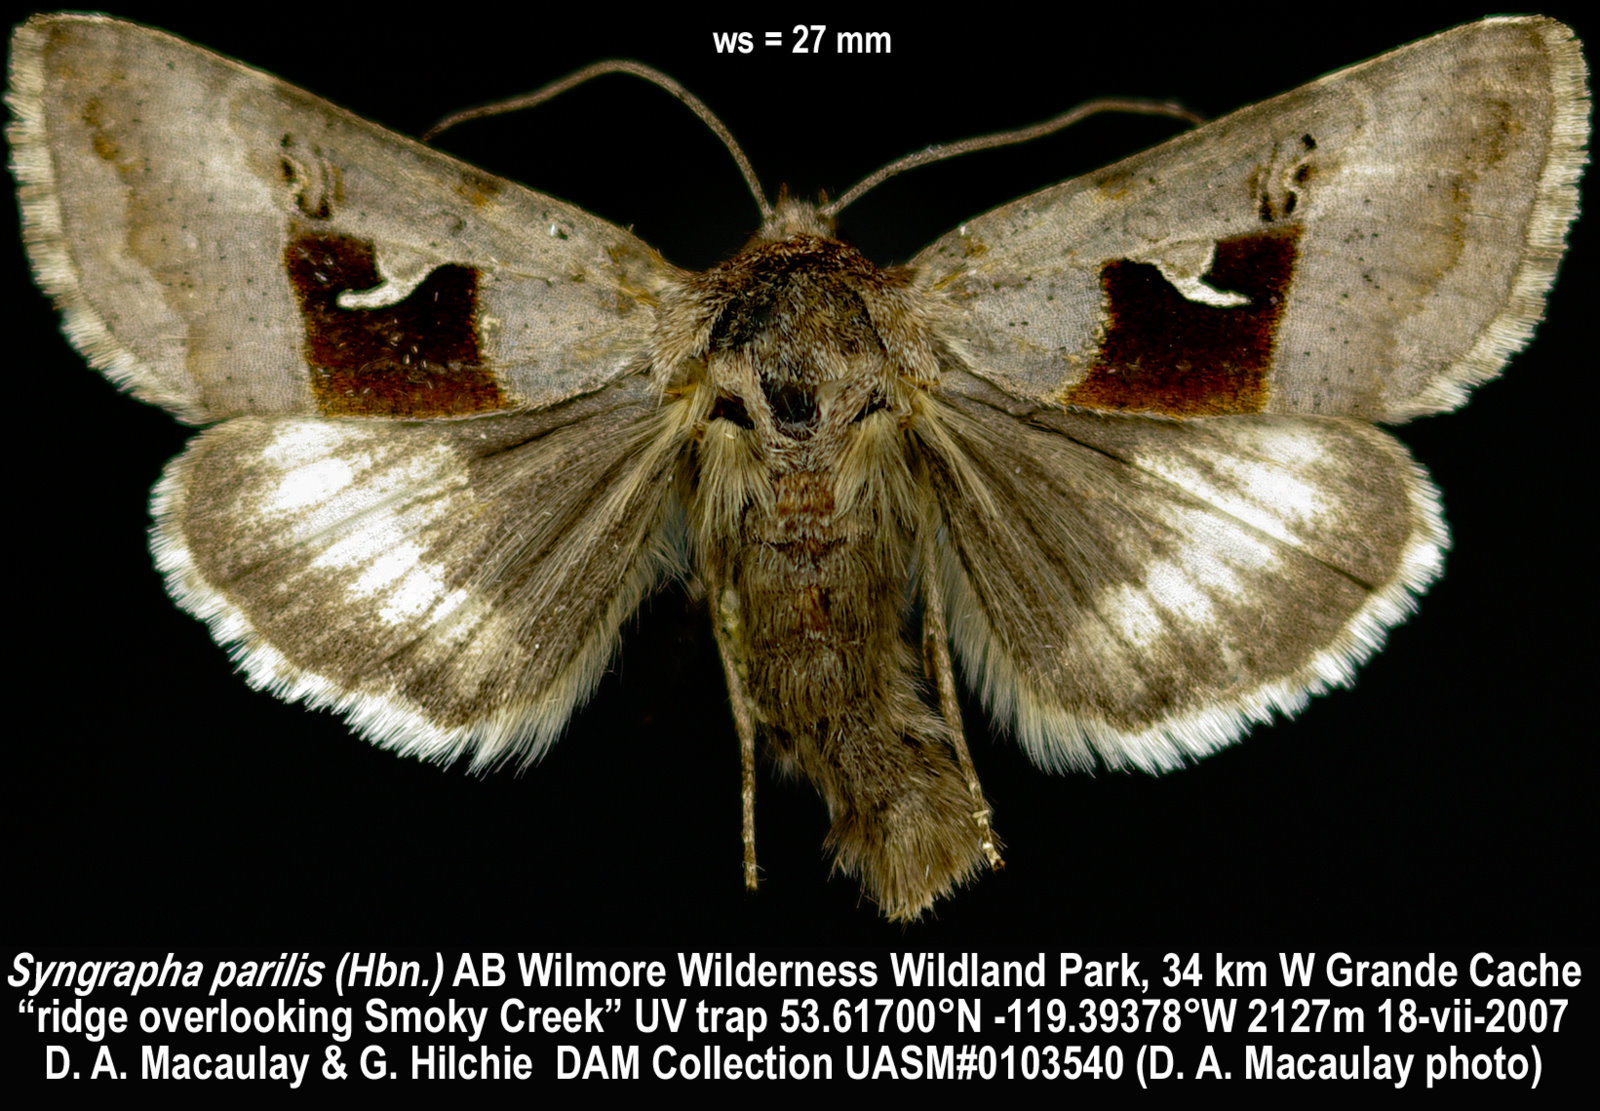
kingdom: Animalia
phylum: Arthropoda
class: Insecta
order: Lepidoptera
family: Noctuidae
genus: Syngrapha
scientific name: Syngrapha parilis
